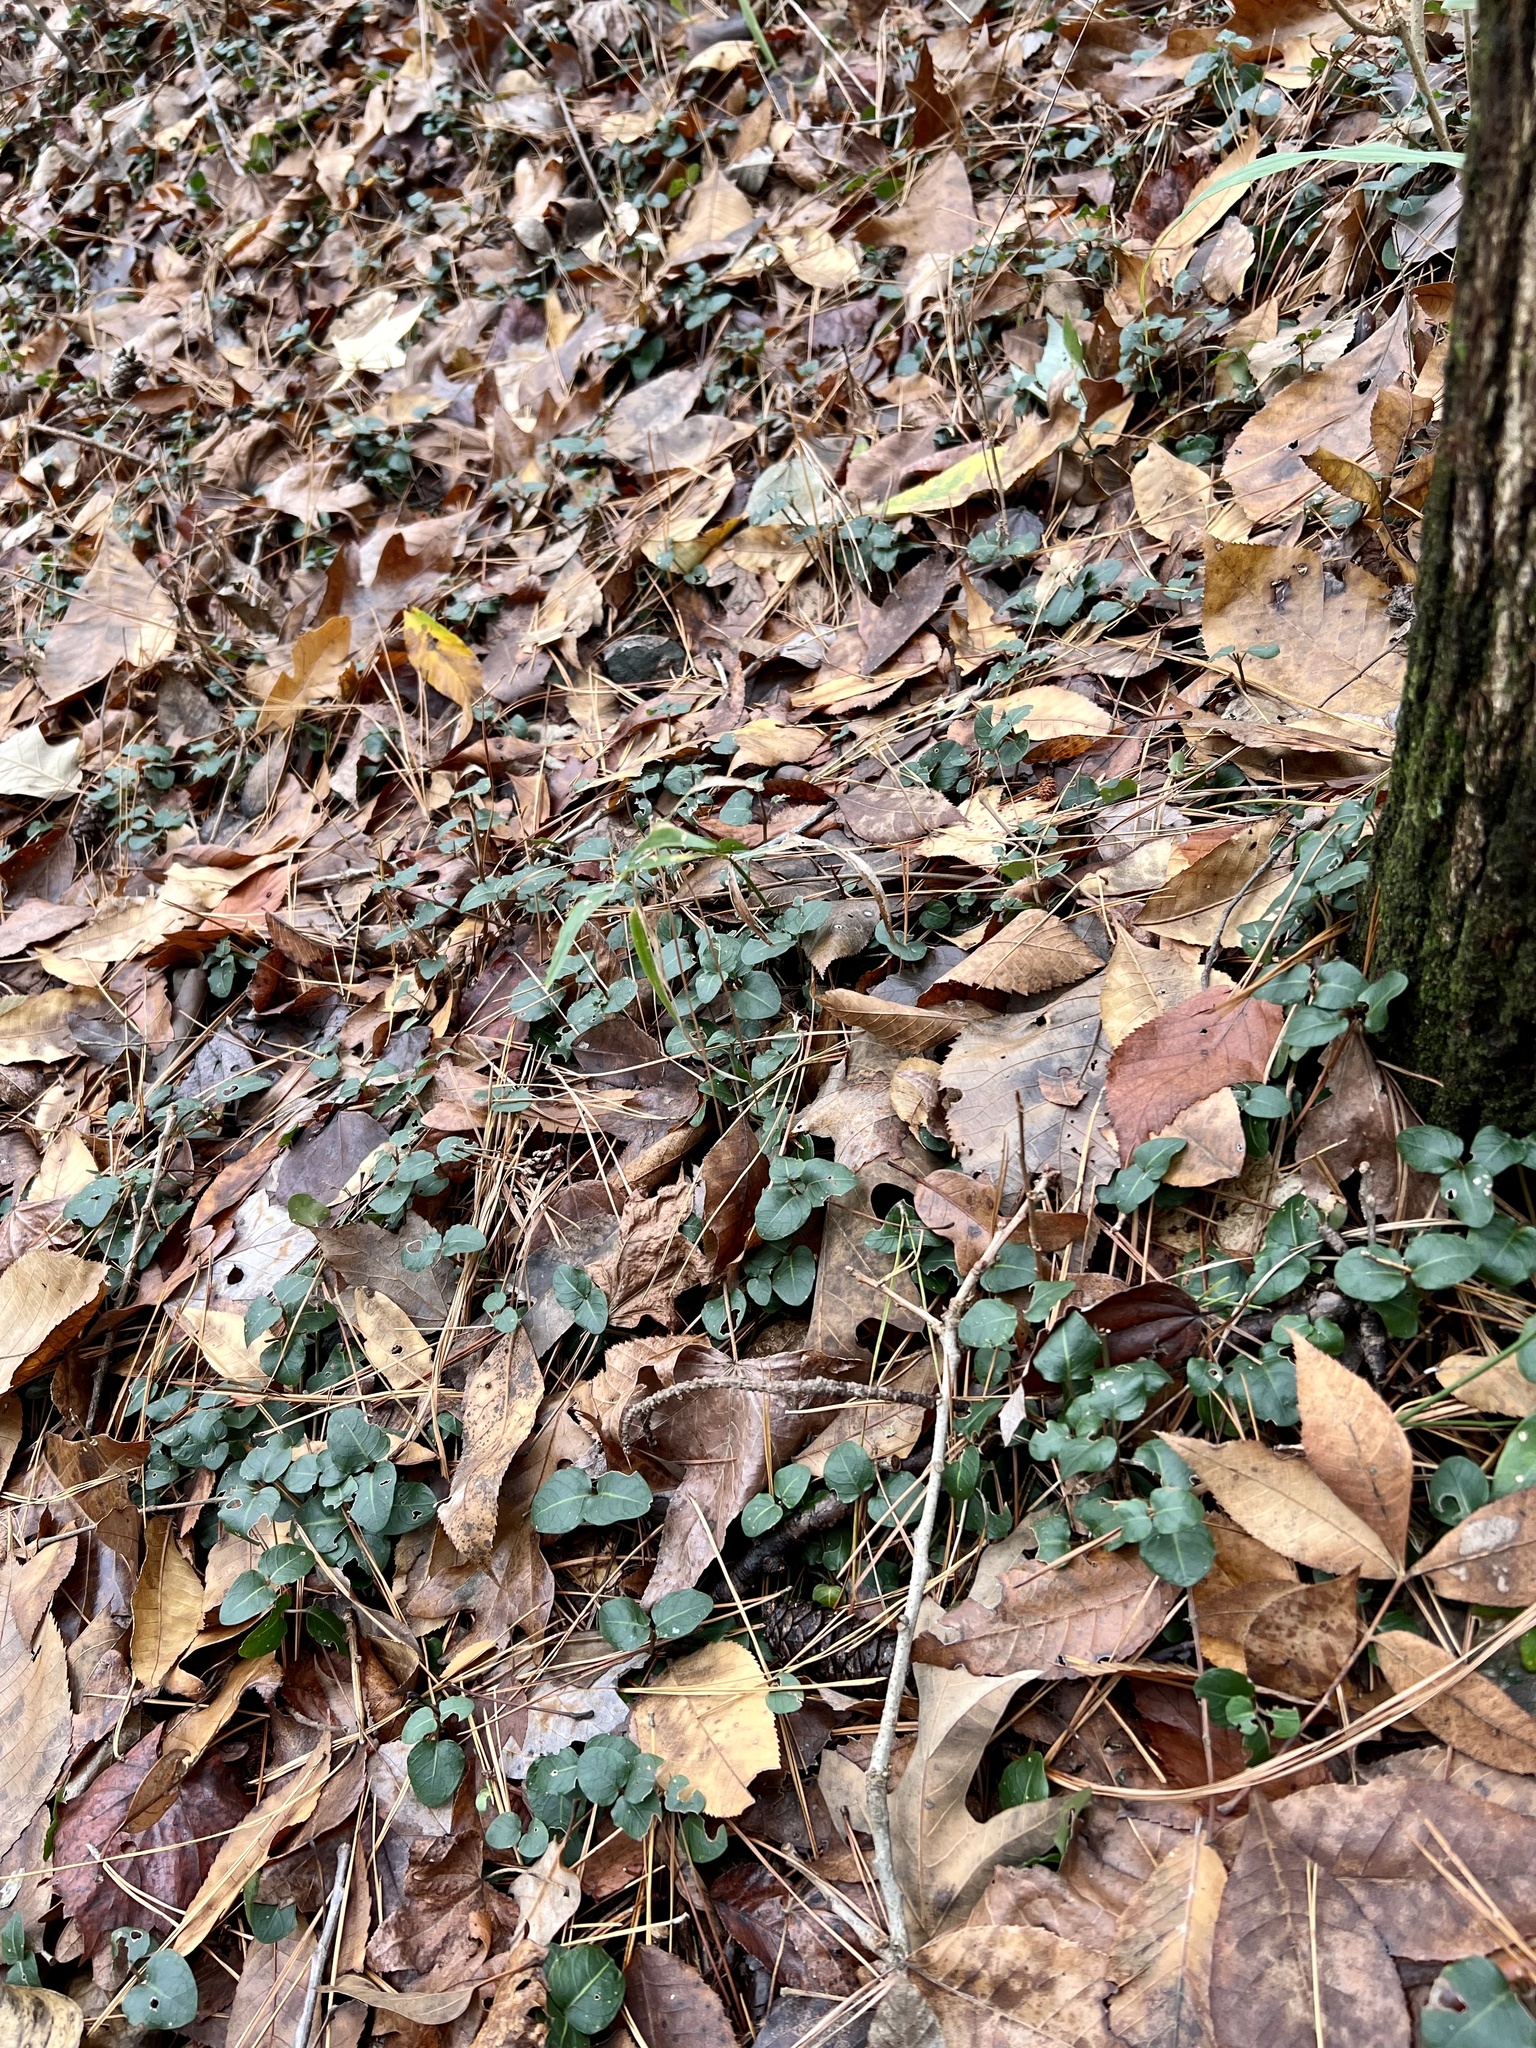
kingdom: Plantae
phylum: Tracheophyta
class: Magnoliopsida
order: Gentianales
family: Rubiaceae
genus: Mitchella
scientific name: Mitchella repens
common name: Partridge-berry
